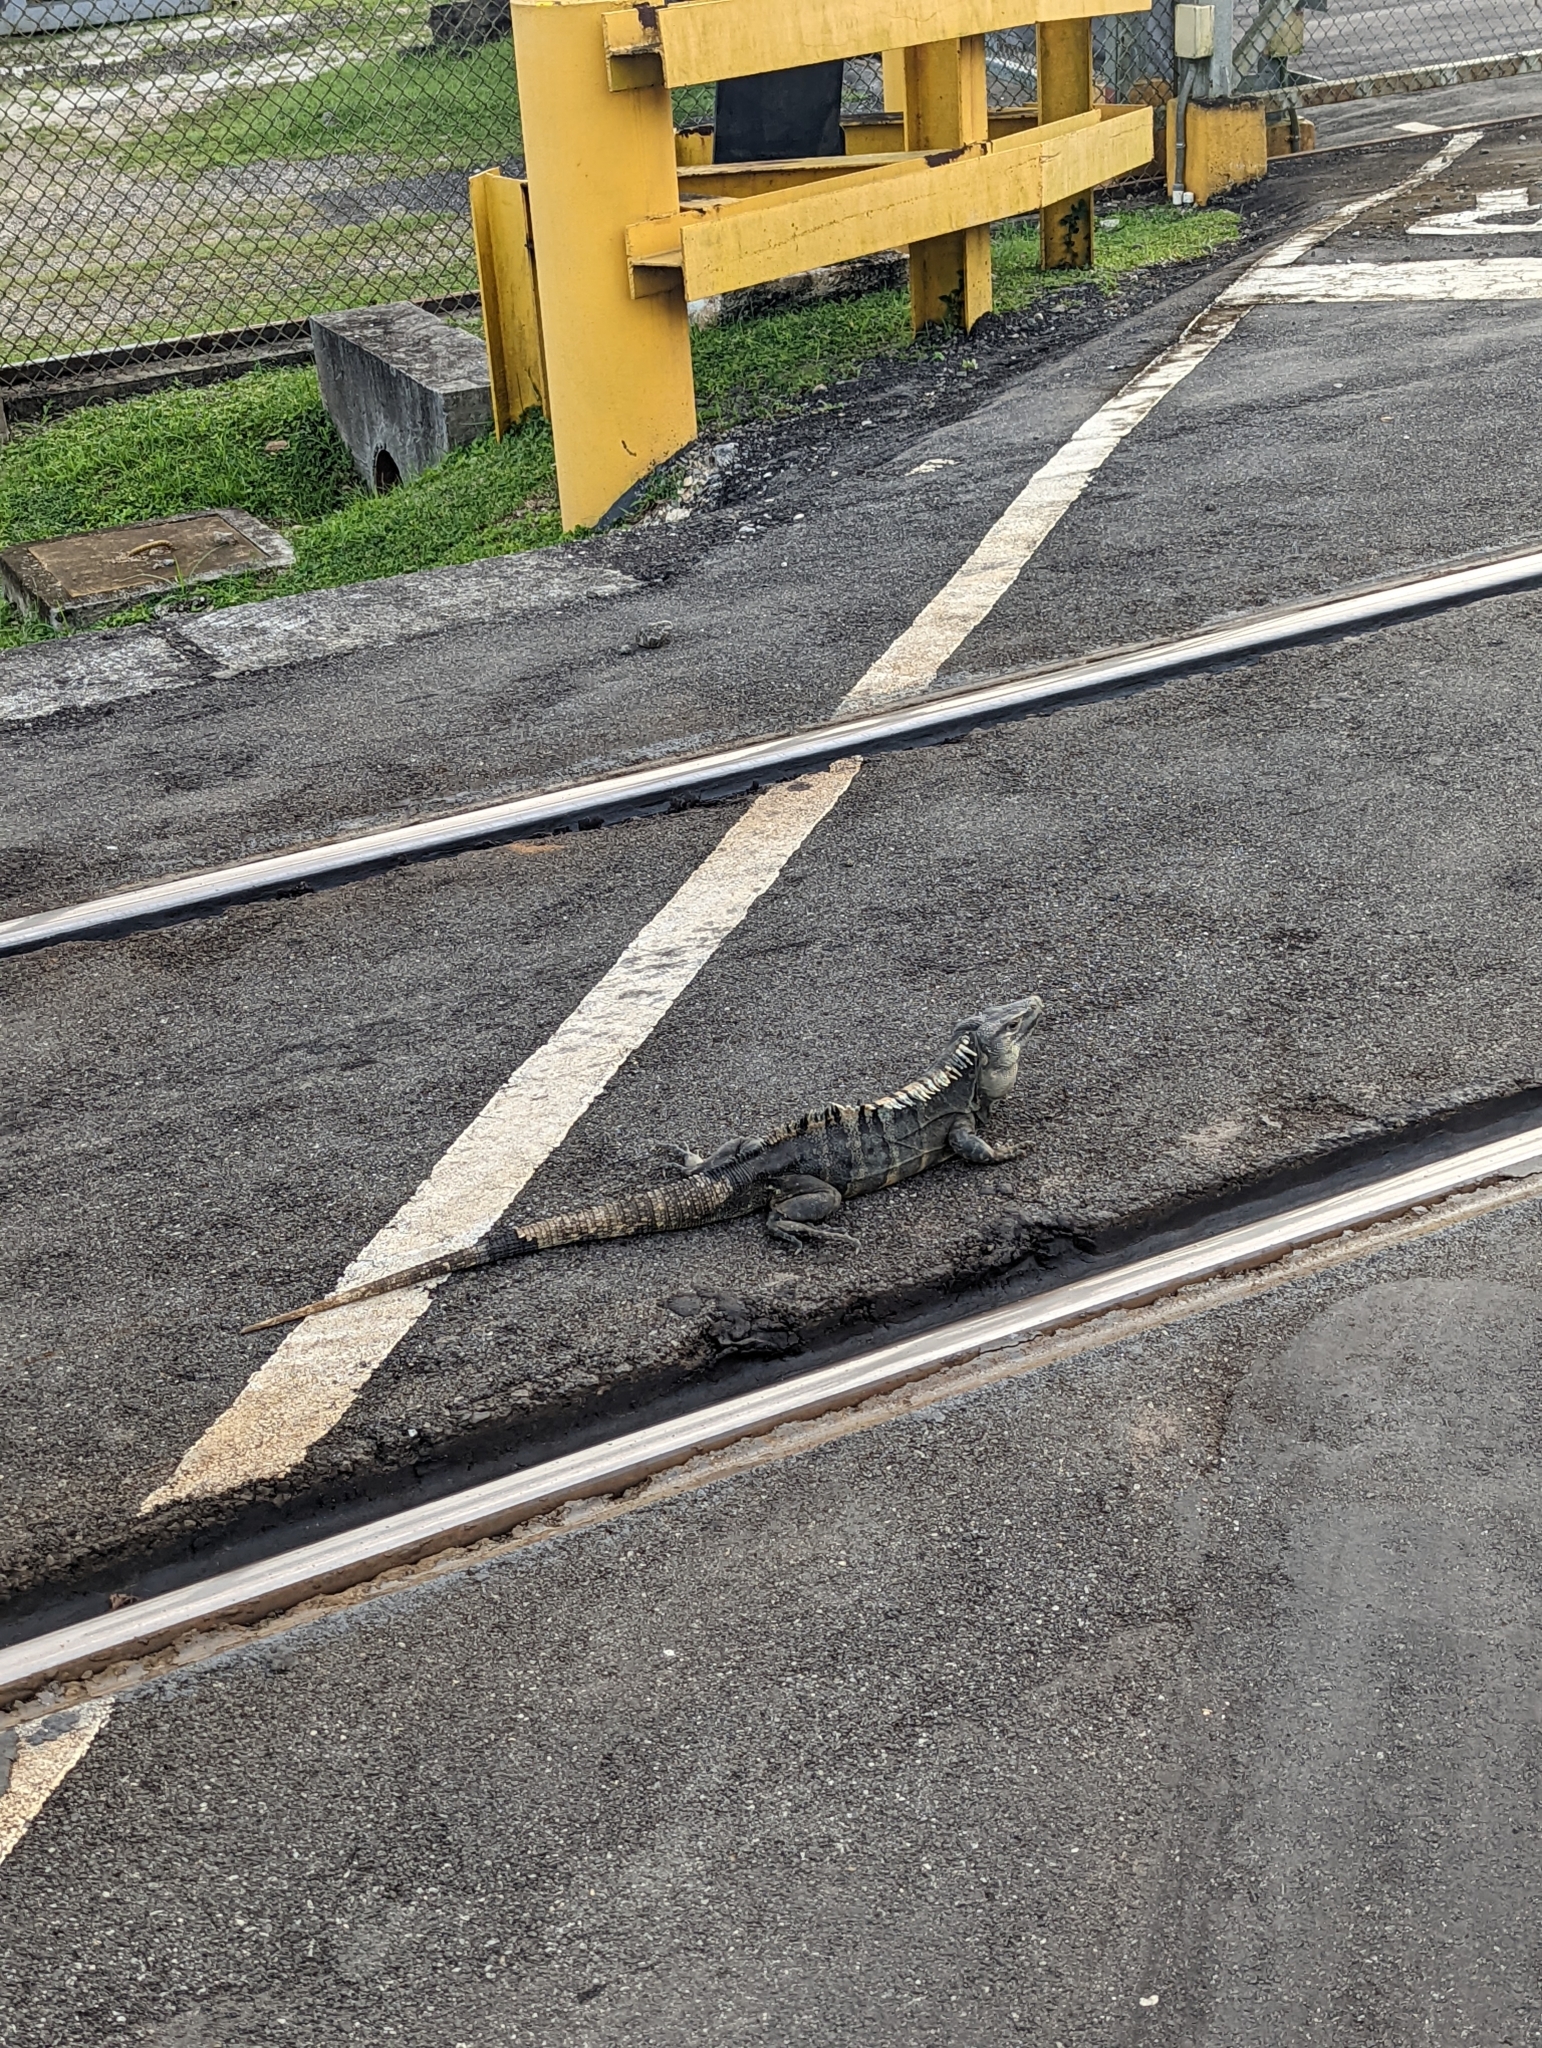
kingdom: Animalia
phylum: Chordata
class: Squamata
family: Iguanidae
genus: Ctenosaura
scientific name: Ctenosaura similis
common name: Black spiny-tailed iguana
